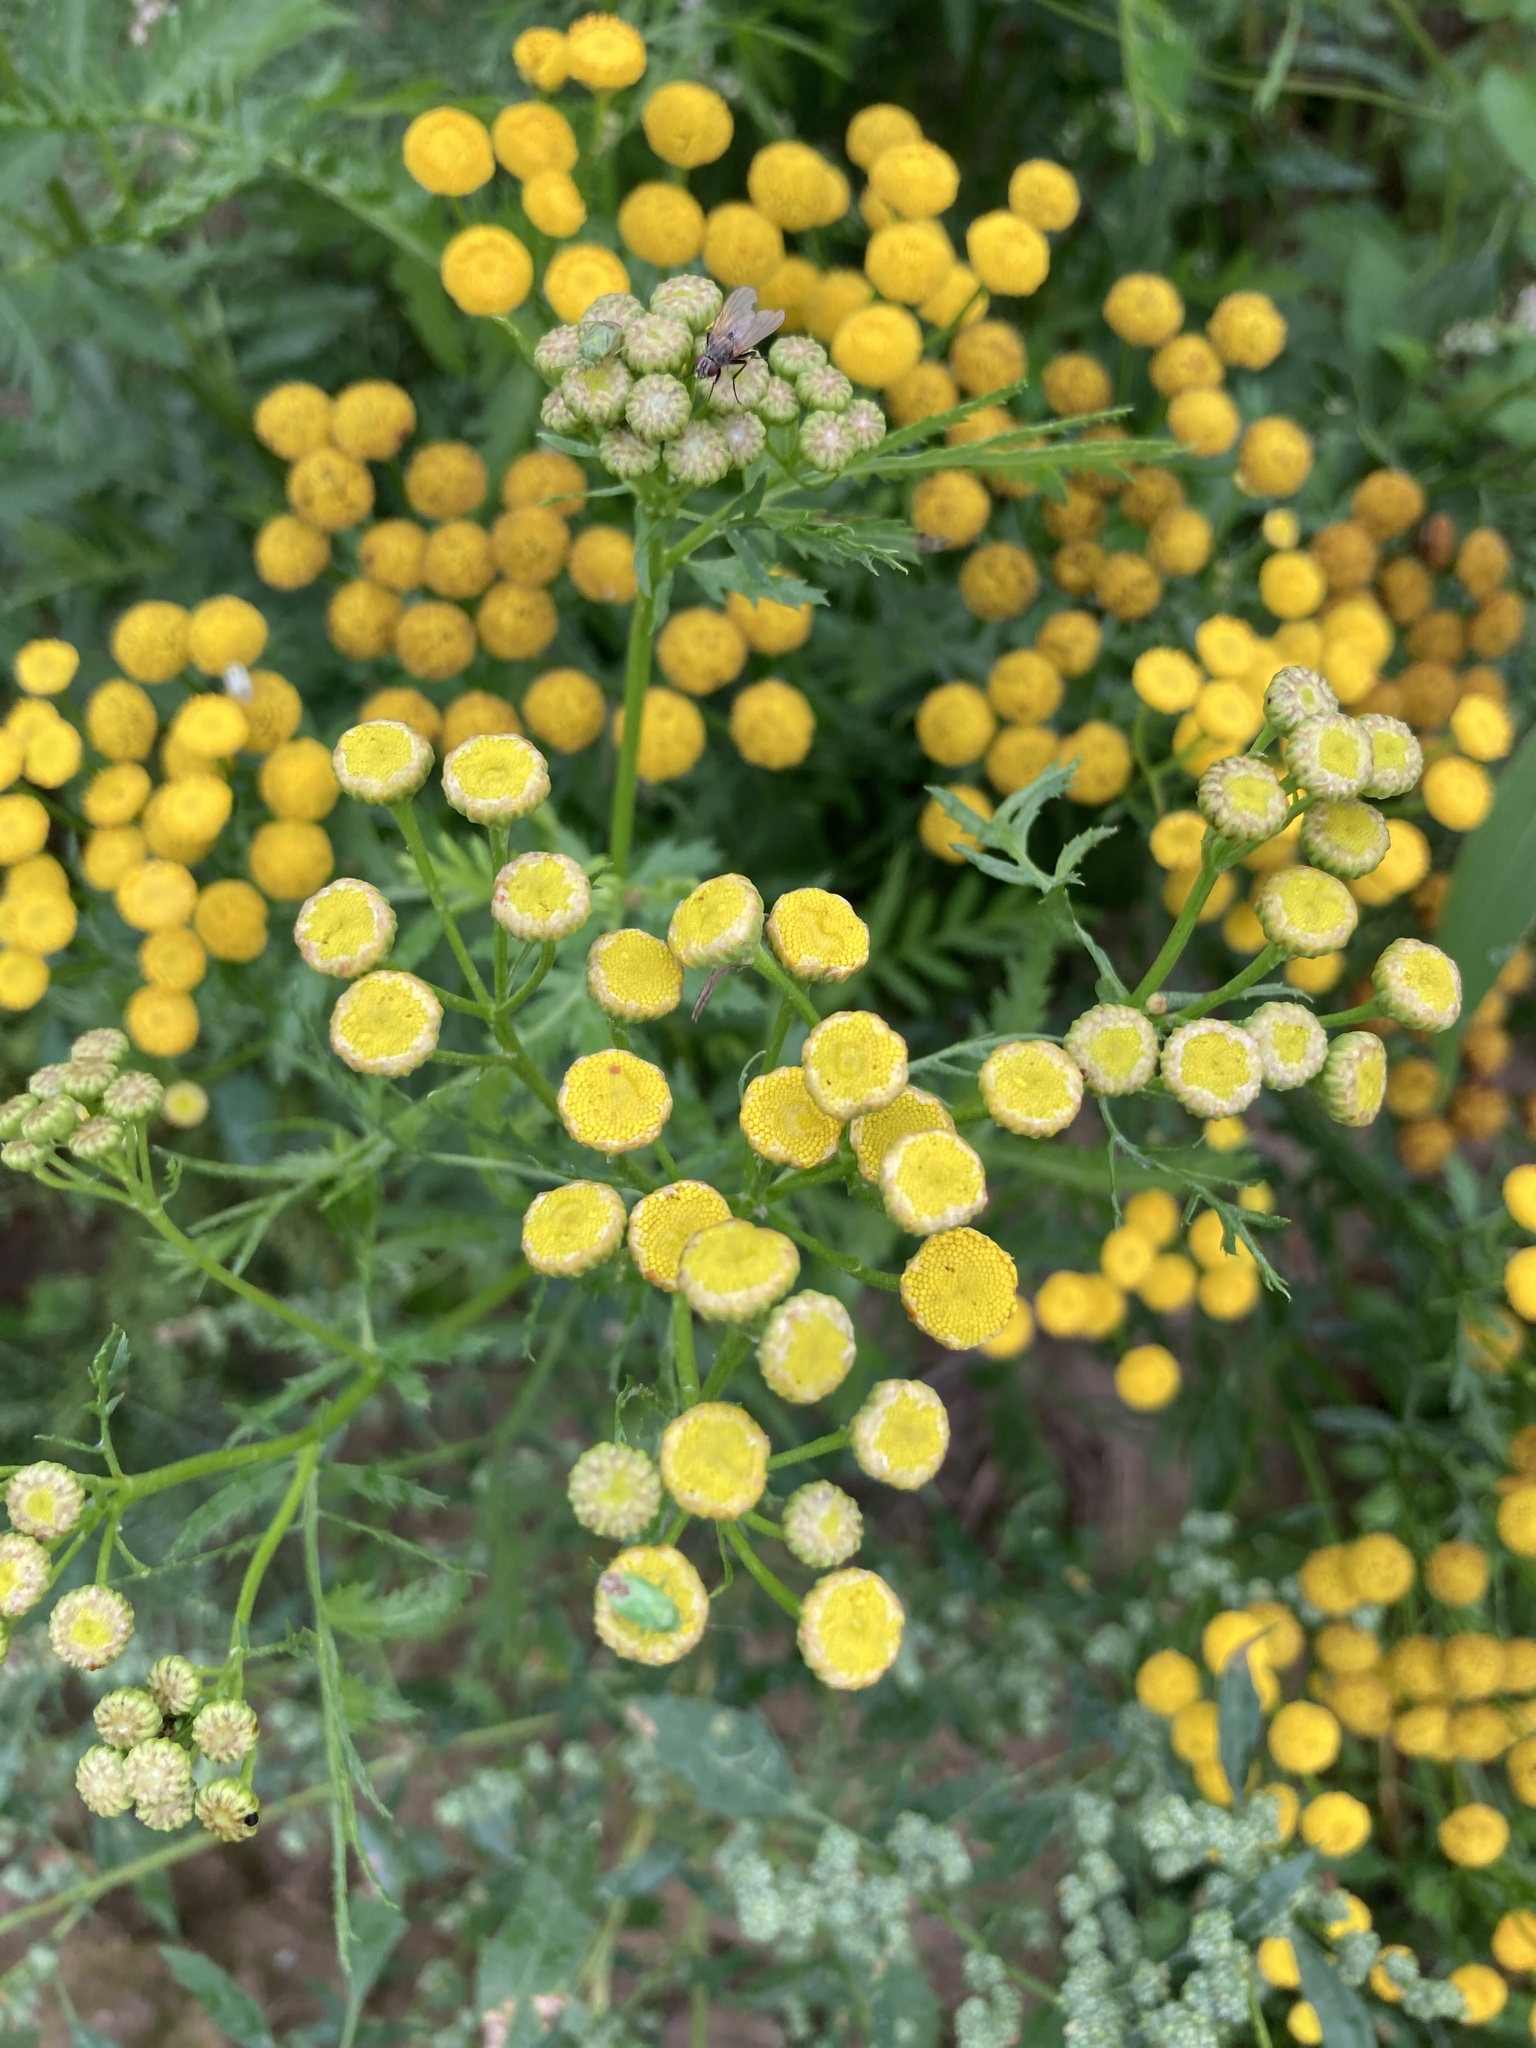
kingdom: Plantae
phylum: Tracheophyta
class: Magnoliopsida
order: Asterales
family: Asteraceae
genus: Tanacetum
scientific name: Tanacetum vulgare
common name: Common tansy
